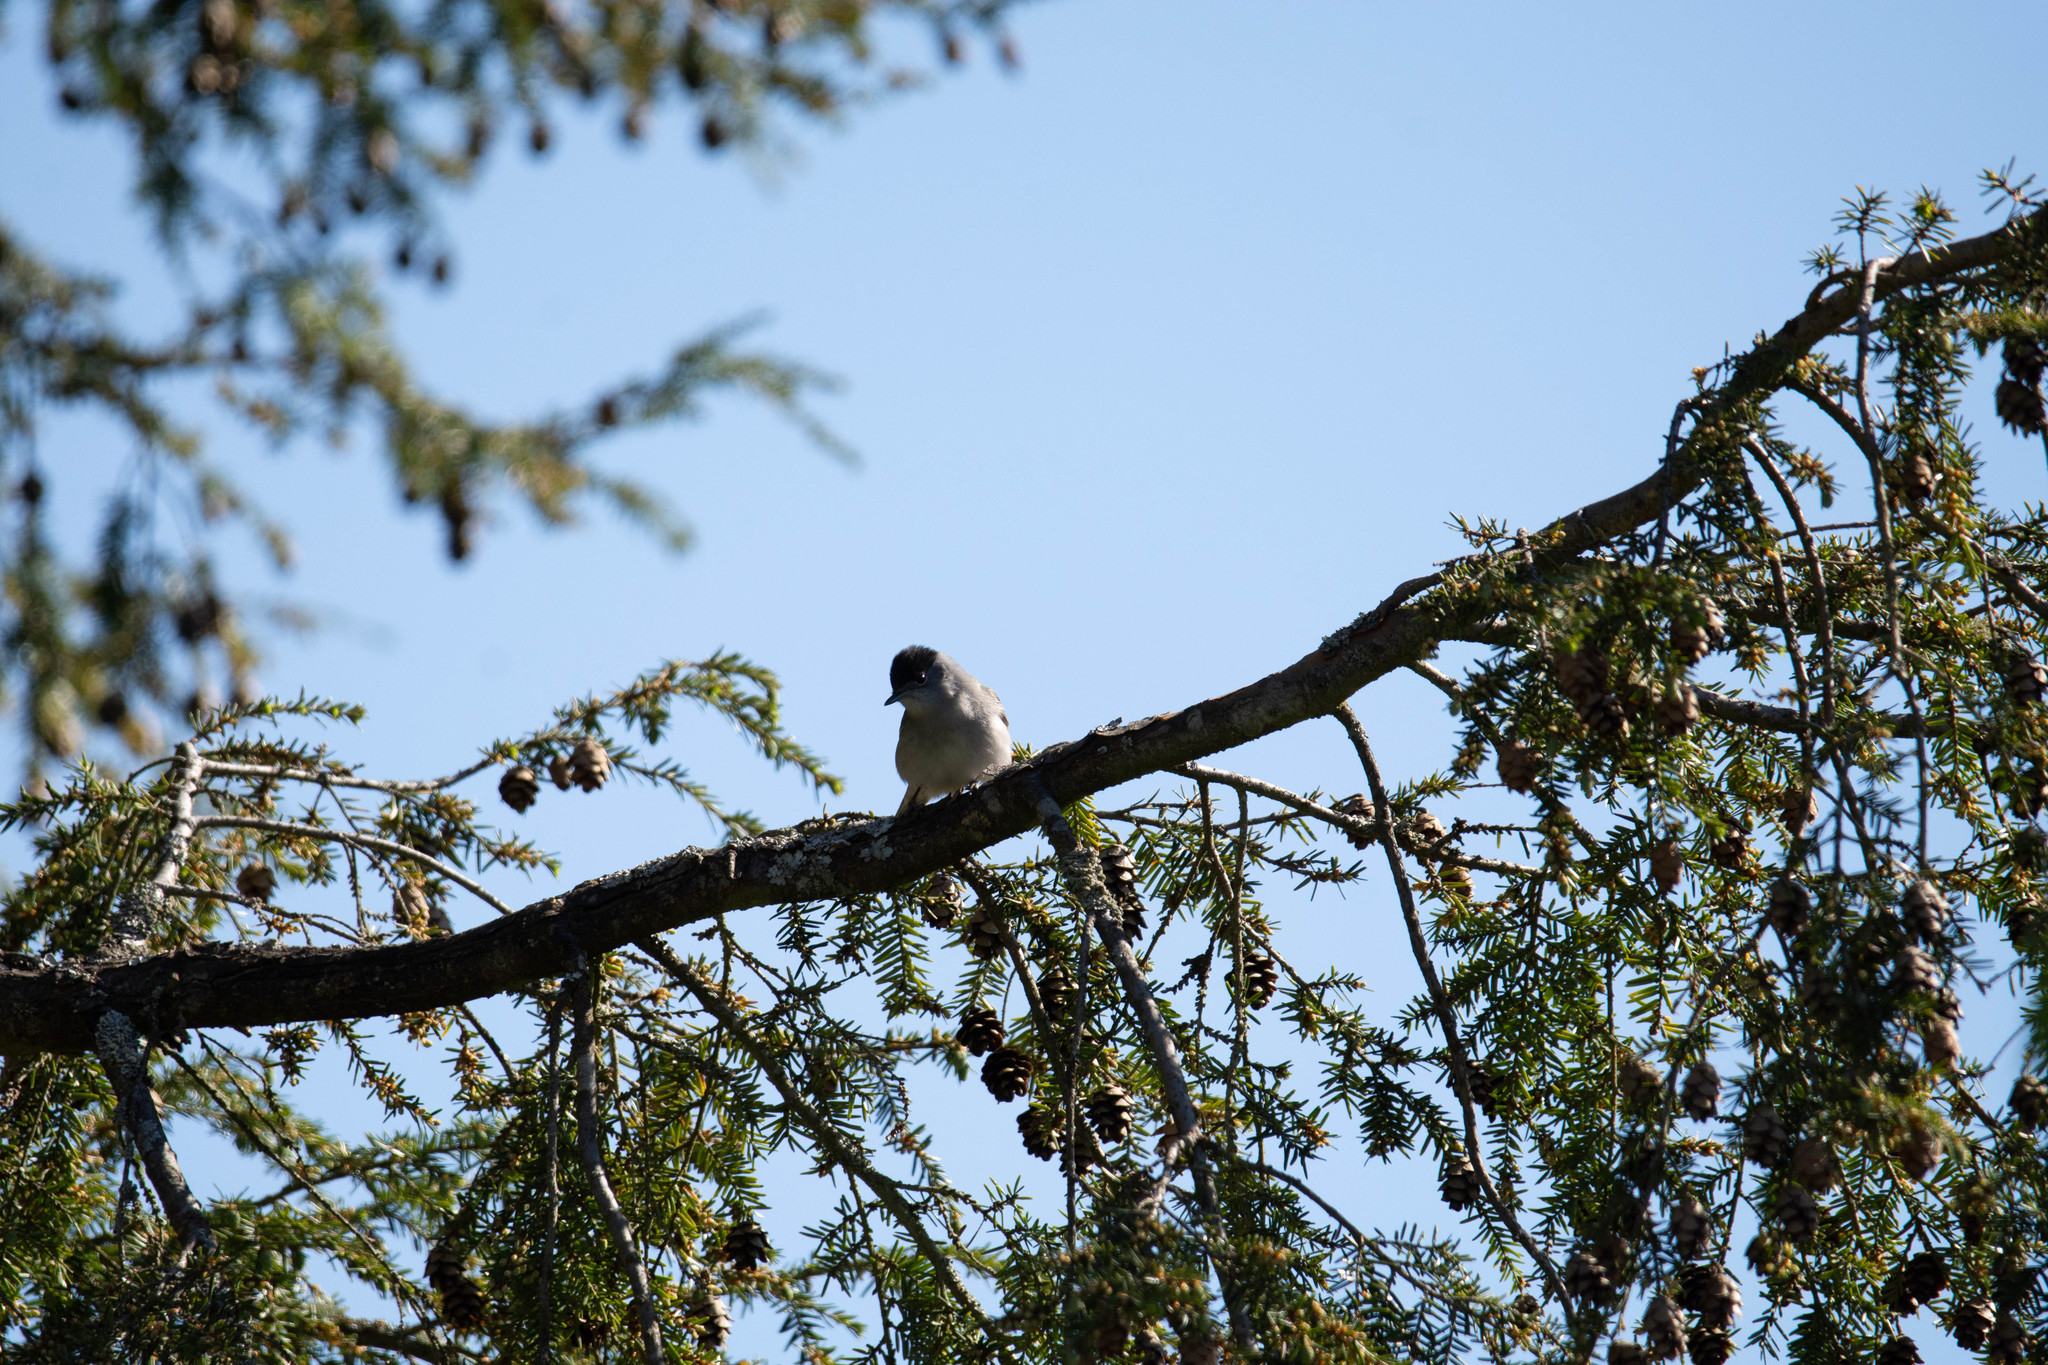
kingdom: Animalia
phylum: Chordata
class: Aves
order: Passeriformes
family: Sylviidae
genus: Sylvia
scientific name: Sylvia atricapilla
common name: Eurasian blackcap
